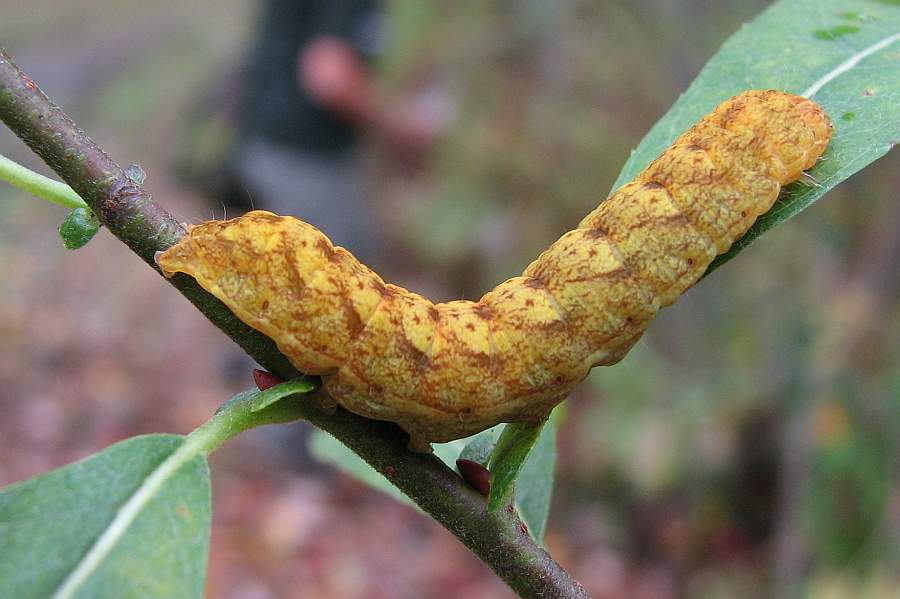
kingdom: Animalia
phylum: Arthropoda
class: Insecta
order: Lepidoptera
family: Noctuidae
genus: Spiramater
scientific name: Spiramater lutra
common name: Otter spiramater moth
